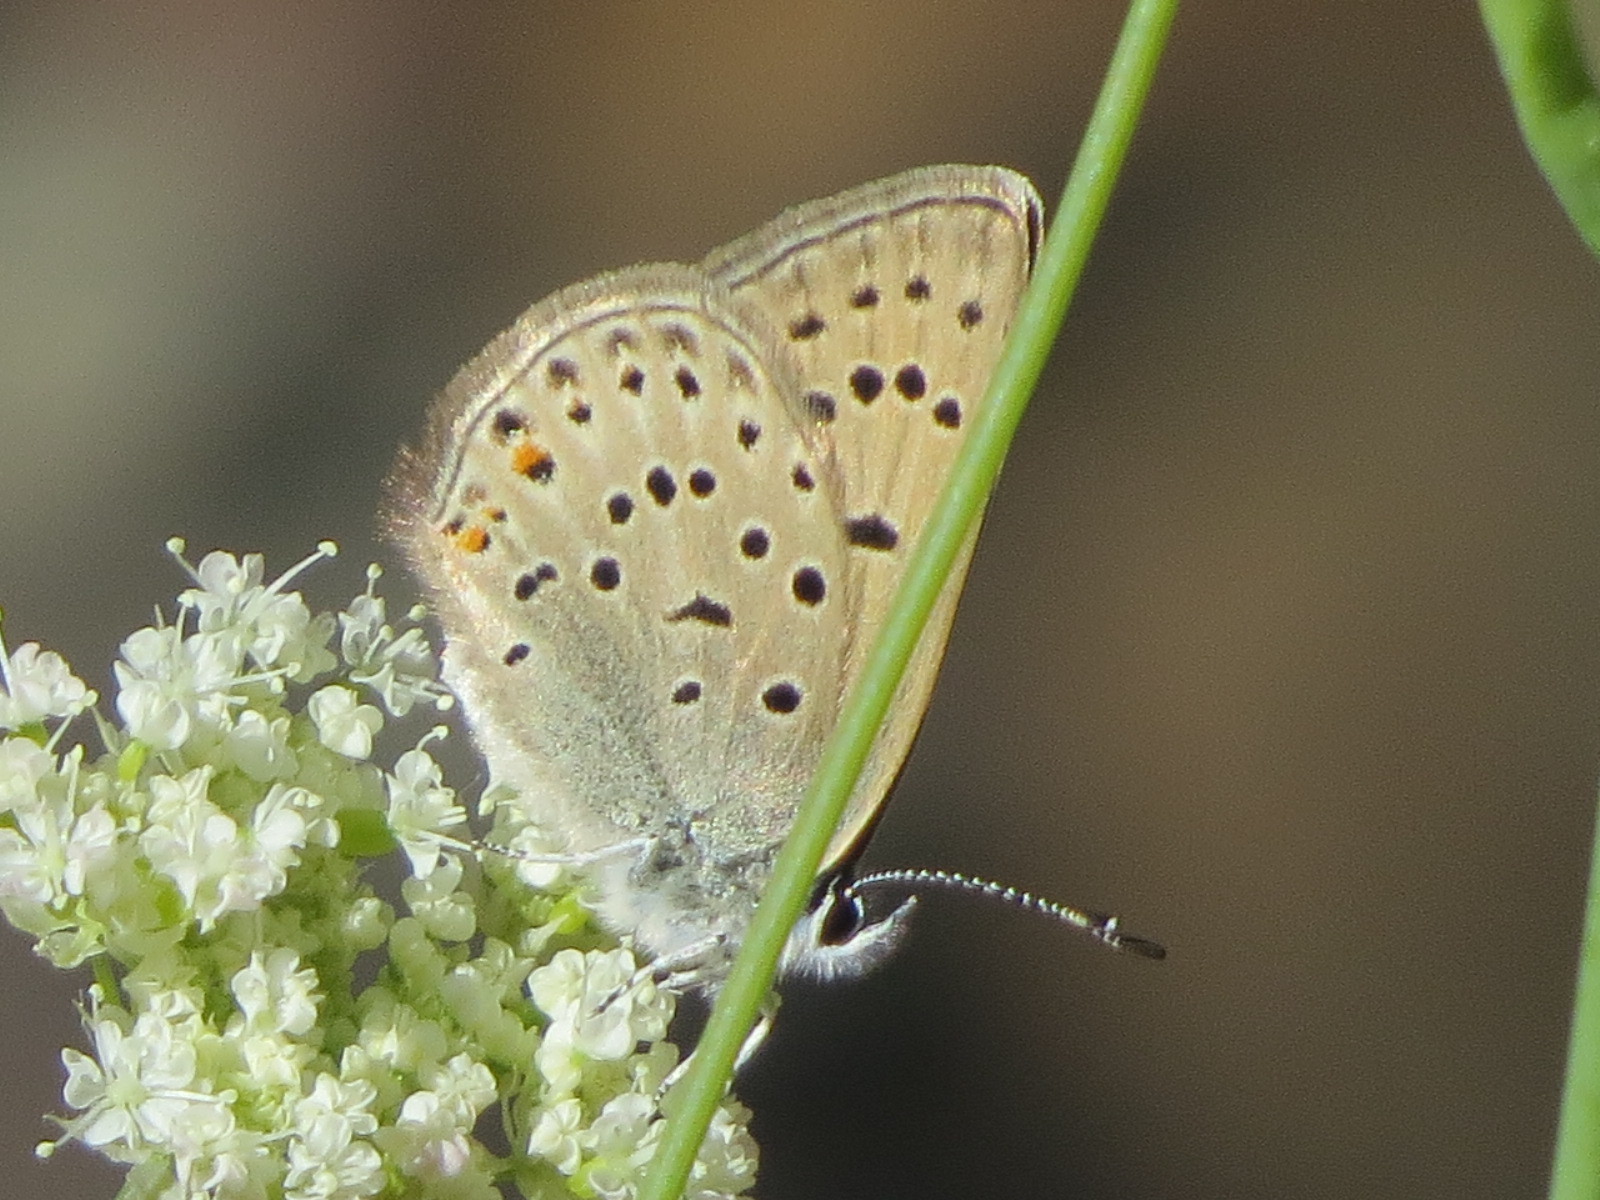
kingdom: Animalia
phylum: Arthropoda
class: Insecta
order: Lepidoptera
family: Lycaenidae
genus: Icaricia
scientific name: Icaricia saepiolus
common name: Greenish blue
